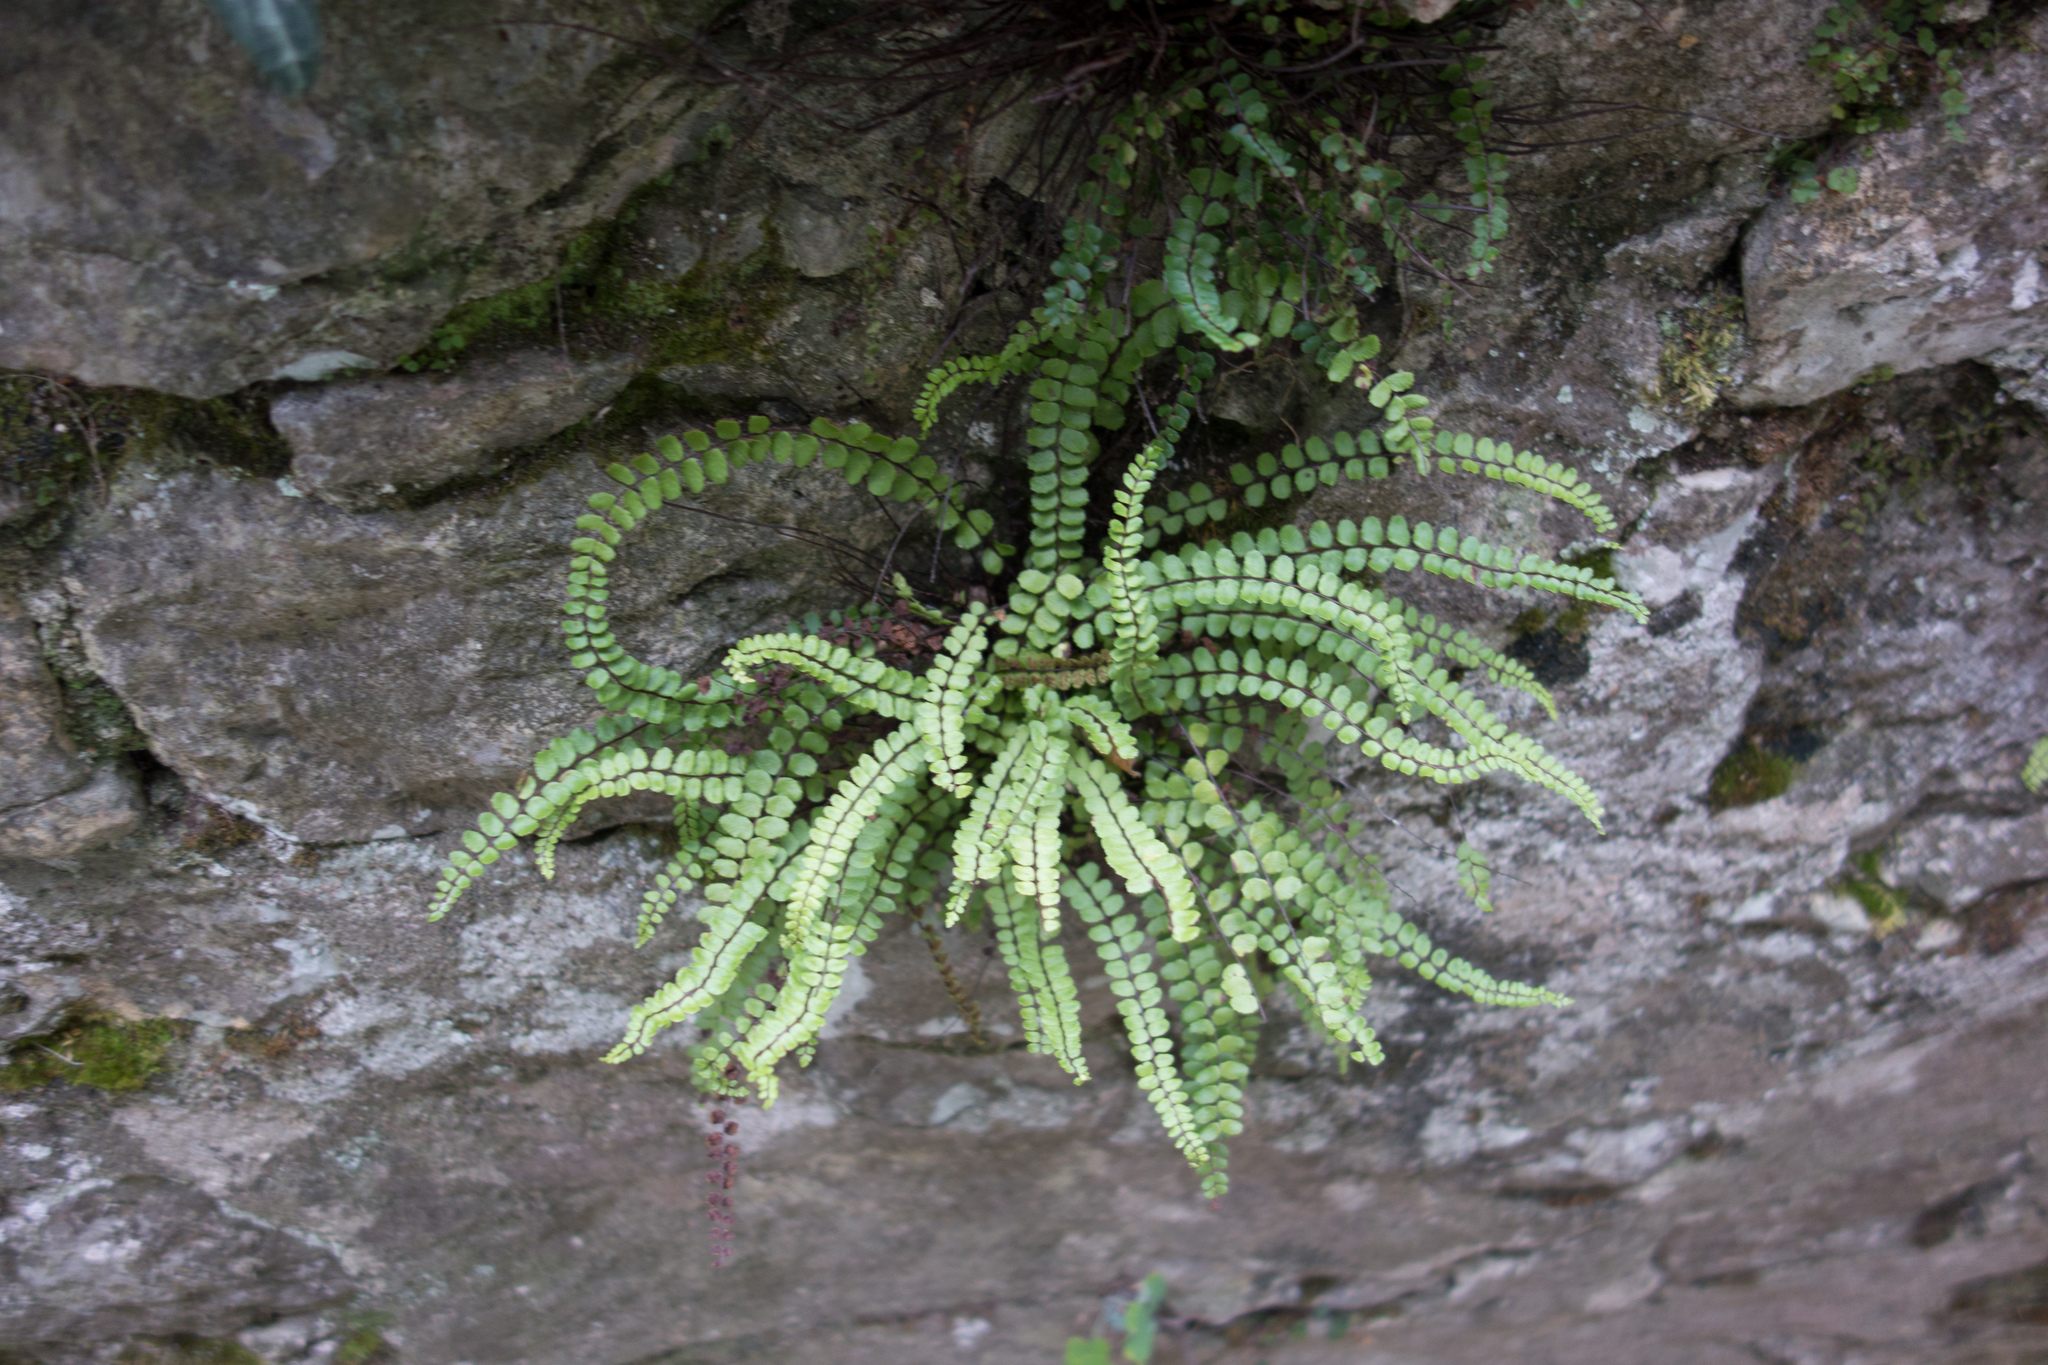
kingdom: Plantae
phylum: Tracheophyta
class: Polypodiopsida
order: Polypodiales
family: Aspleniaceae
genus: Asplenium
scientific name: Asplenium trichomanes
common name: Maidenhair spleenwort
